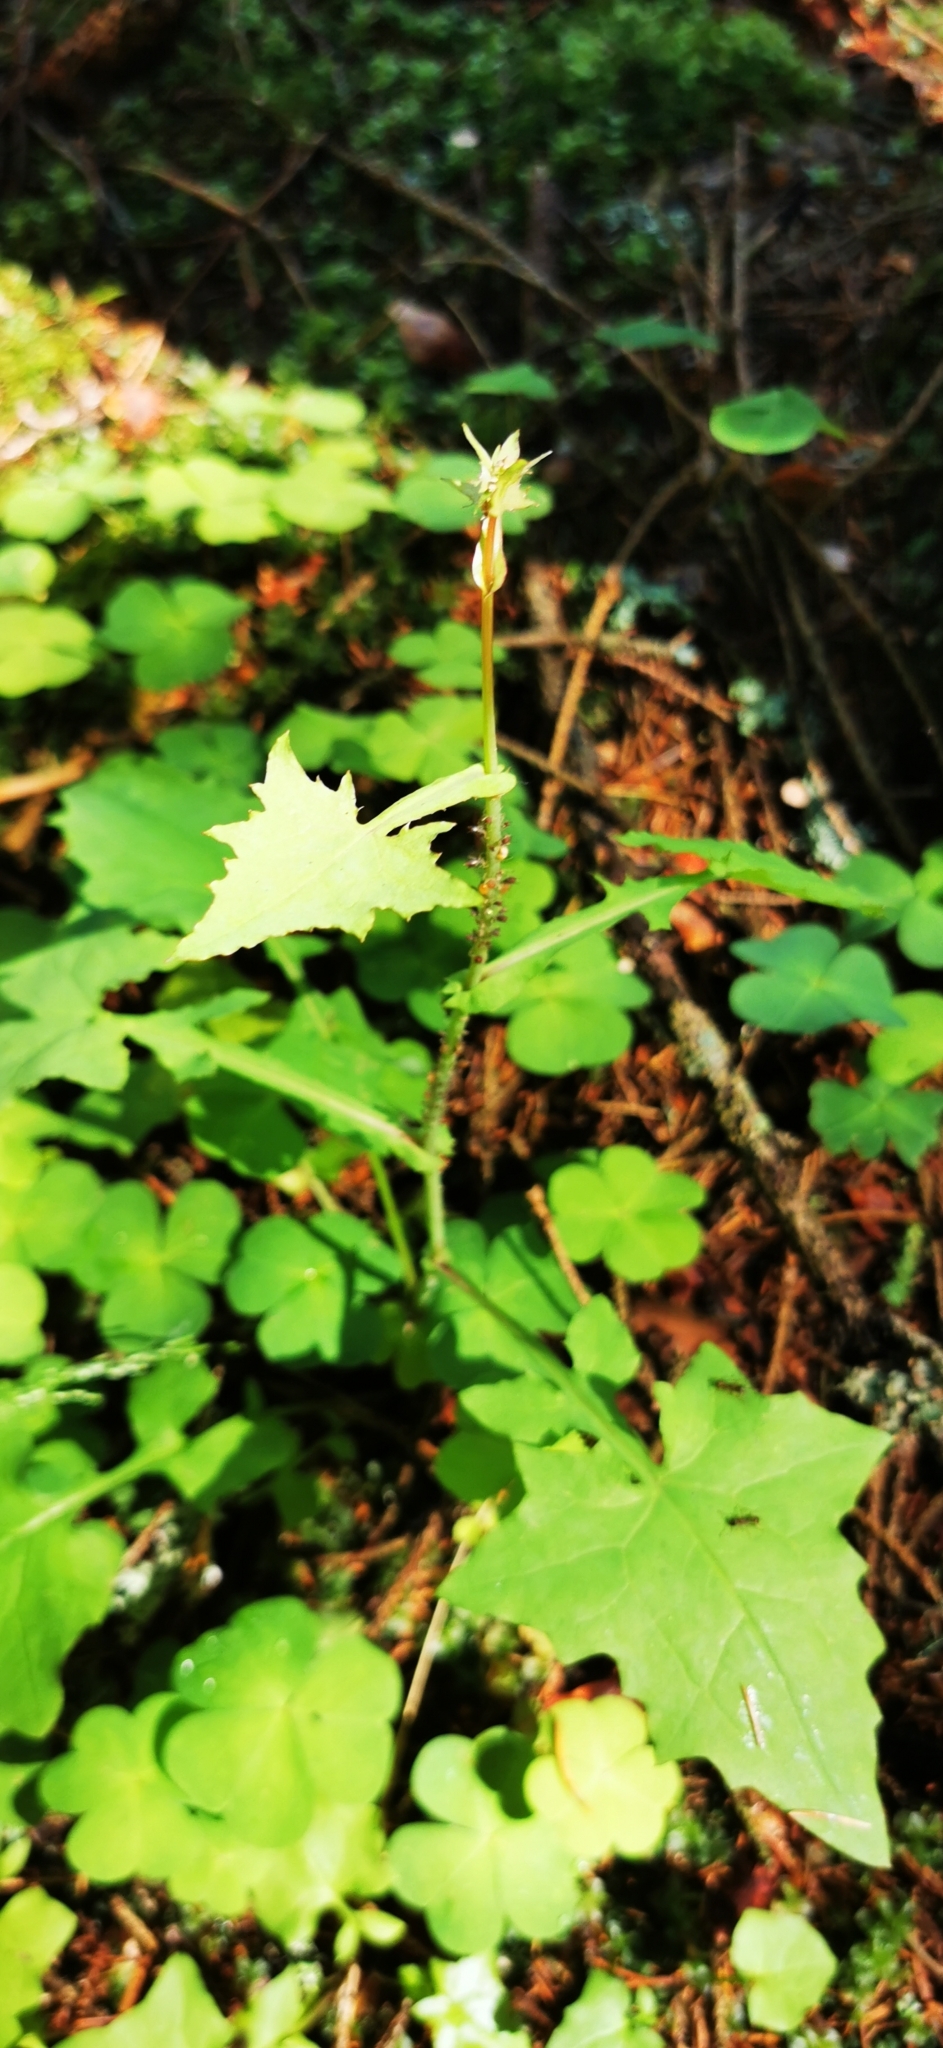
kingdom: Plantae
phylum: Tracheophyta
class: Magnoliopsida
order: Asterales
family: Asteraceae
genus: Mycelis
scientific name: Mycelis muralis
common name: Wall lettuce
